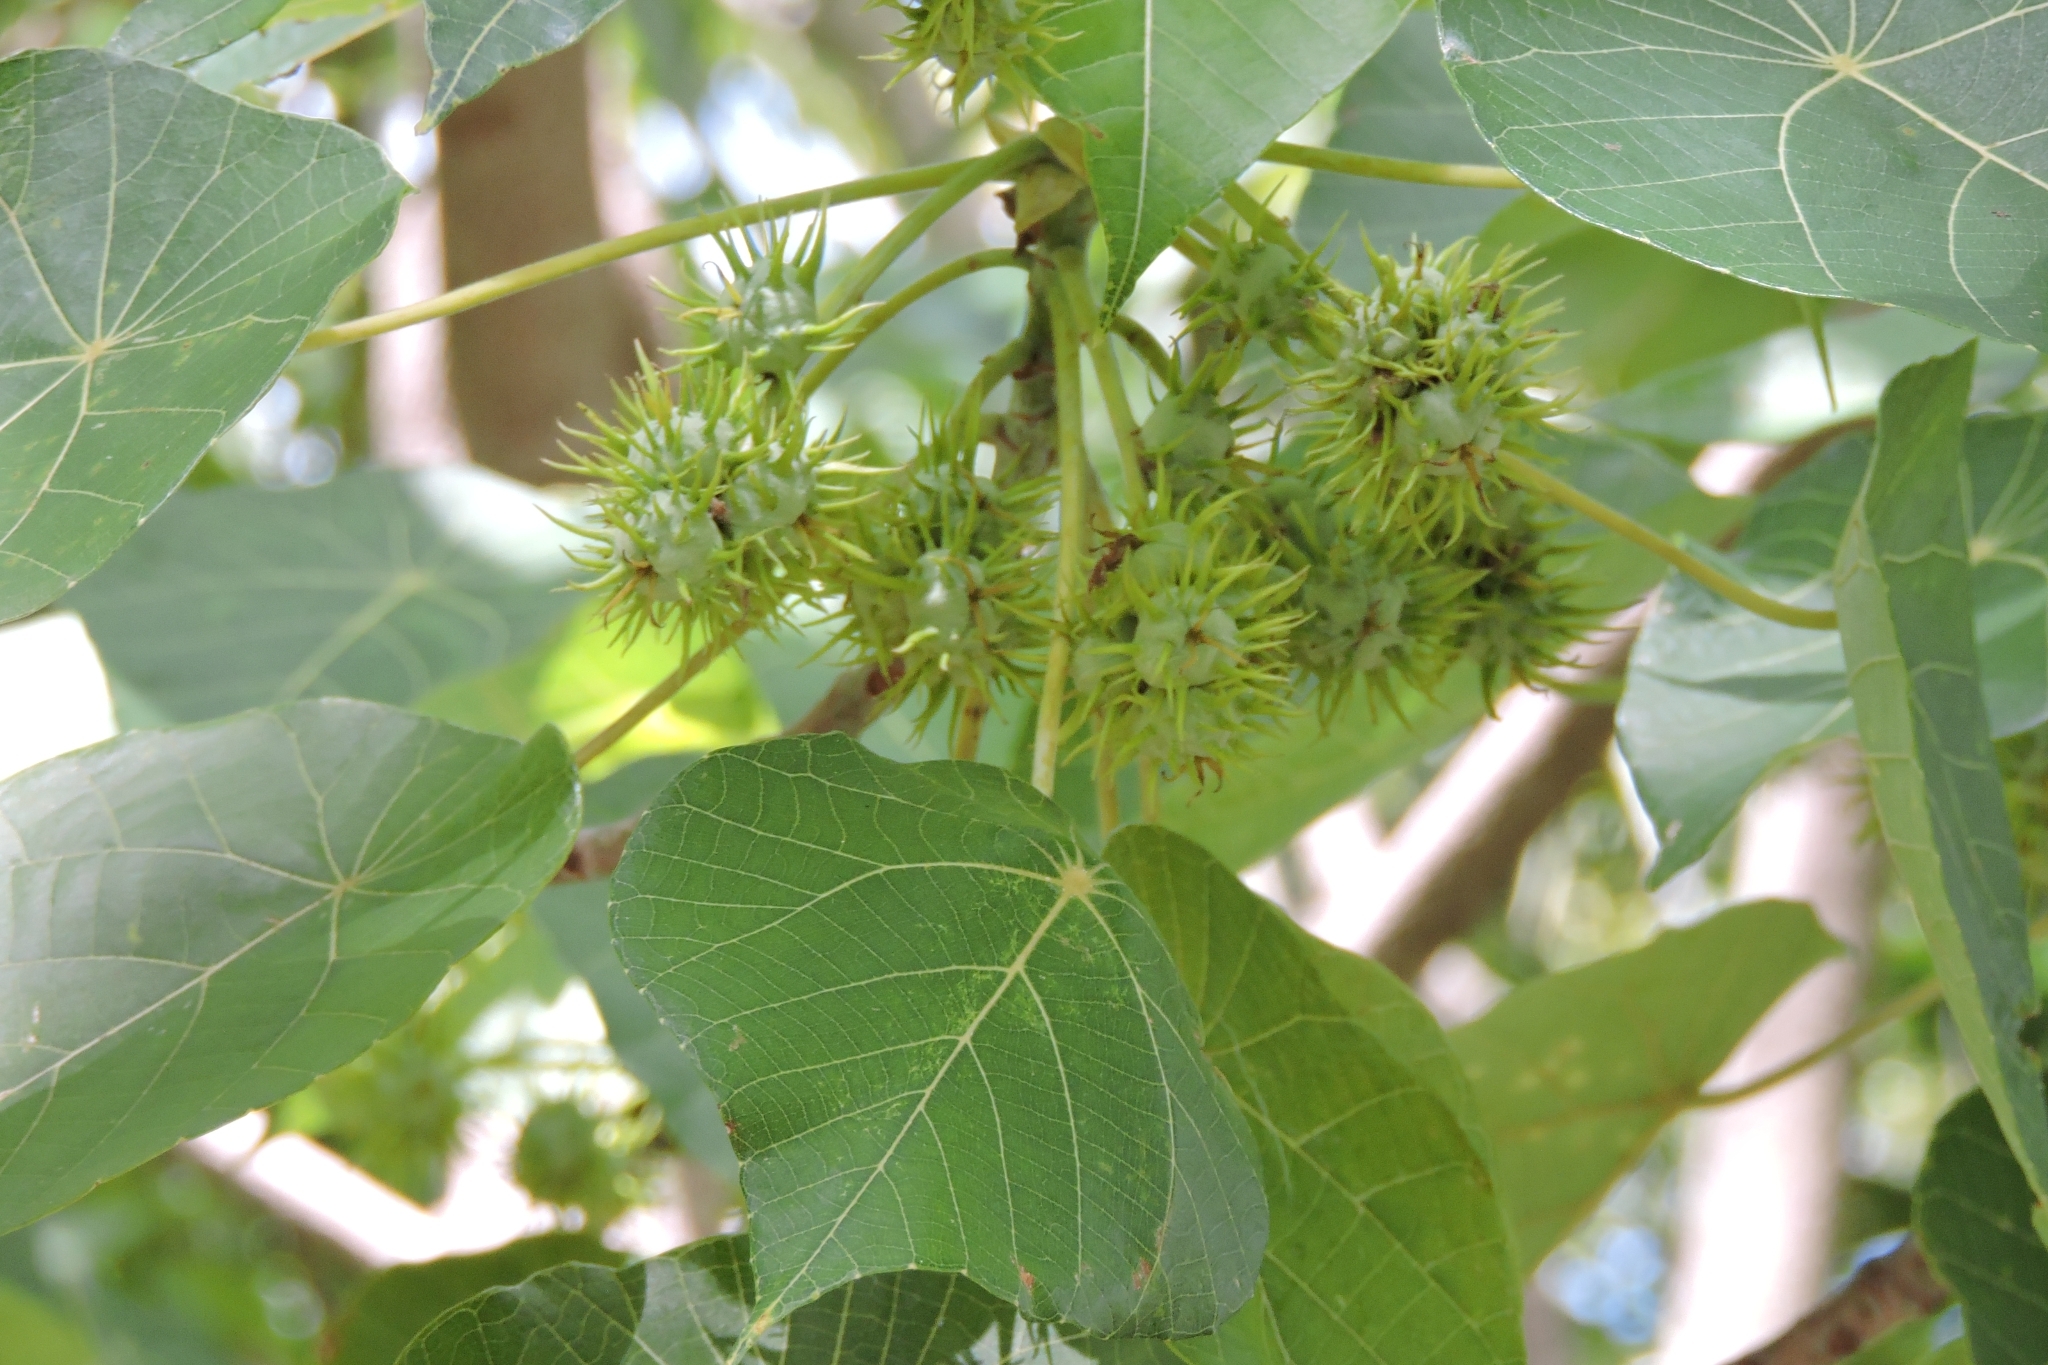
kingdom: Plantae
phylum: Tracheophyta
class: Magnoliopsida
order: Malpighiales
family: Euphorbiaceae
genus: Macaranga
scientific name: Macaranga tanarius
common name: Parasol leaf tree
